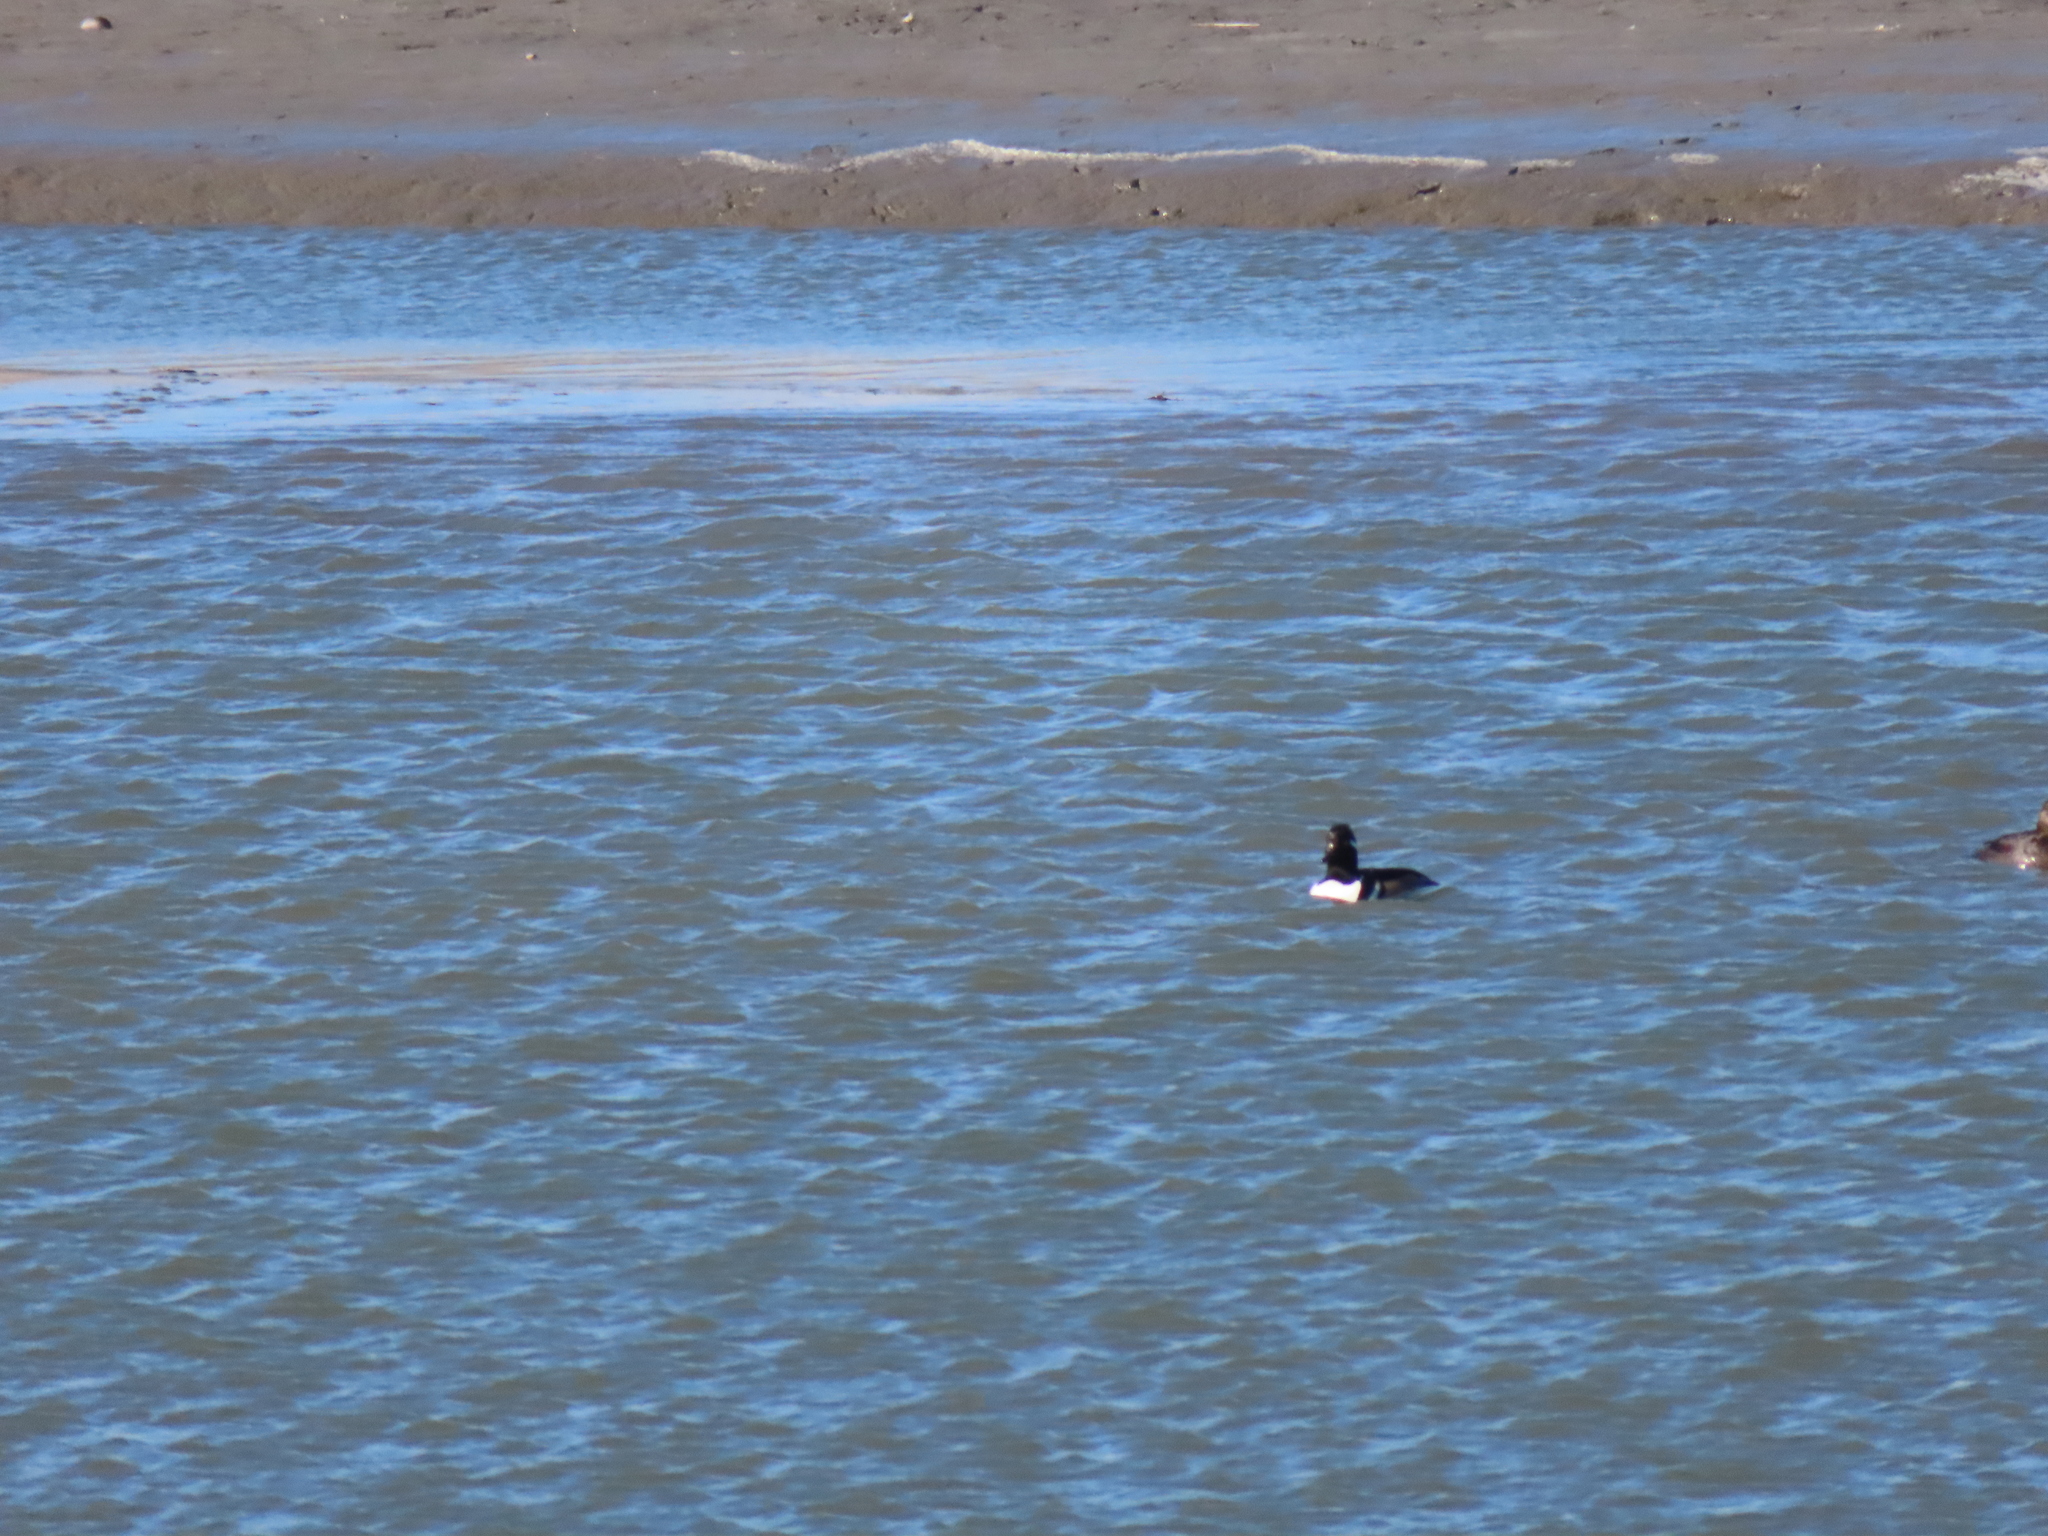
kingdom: Animalia
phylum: Chordata
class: Aves
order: Anseriformes
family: Anatidae
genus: Lophodytes
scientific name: Lophodytes cucullatus
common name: Hooded merganser
